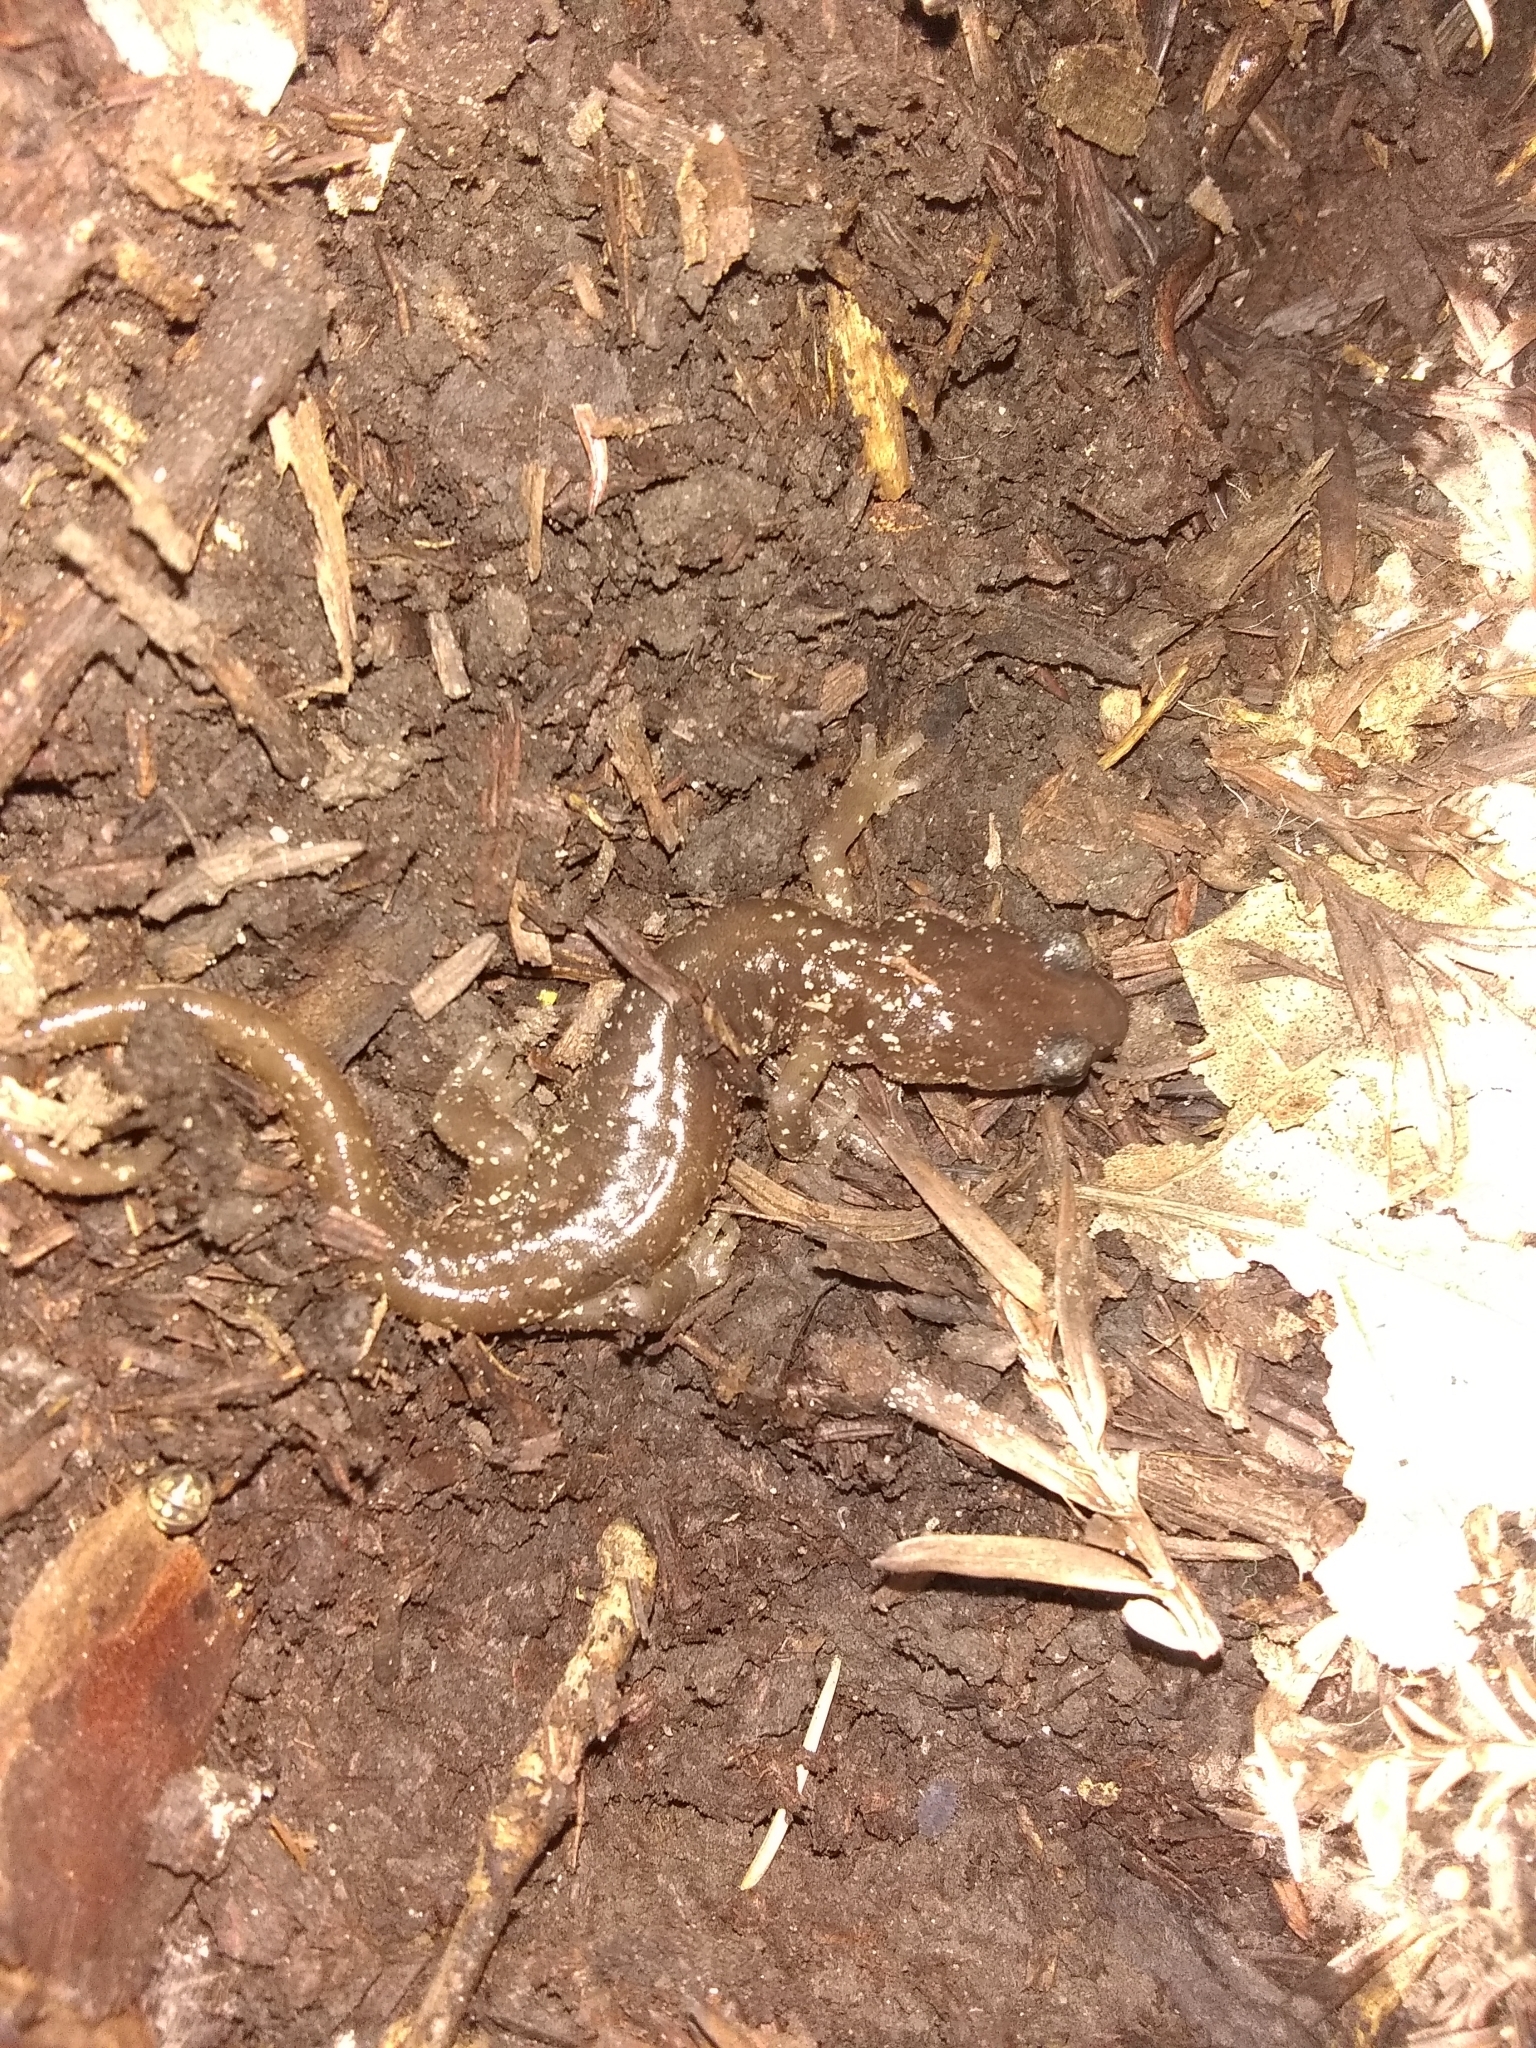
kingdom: Animalia
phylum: Chordata
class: Amphibia
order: Caudata
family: Plethodontidae
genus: Aneides
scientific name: Aneides lugubris
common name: Arboreal salamander
